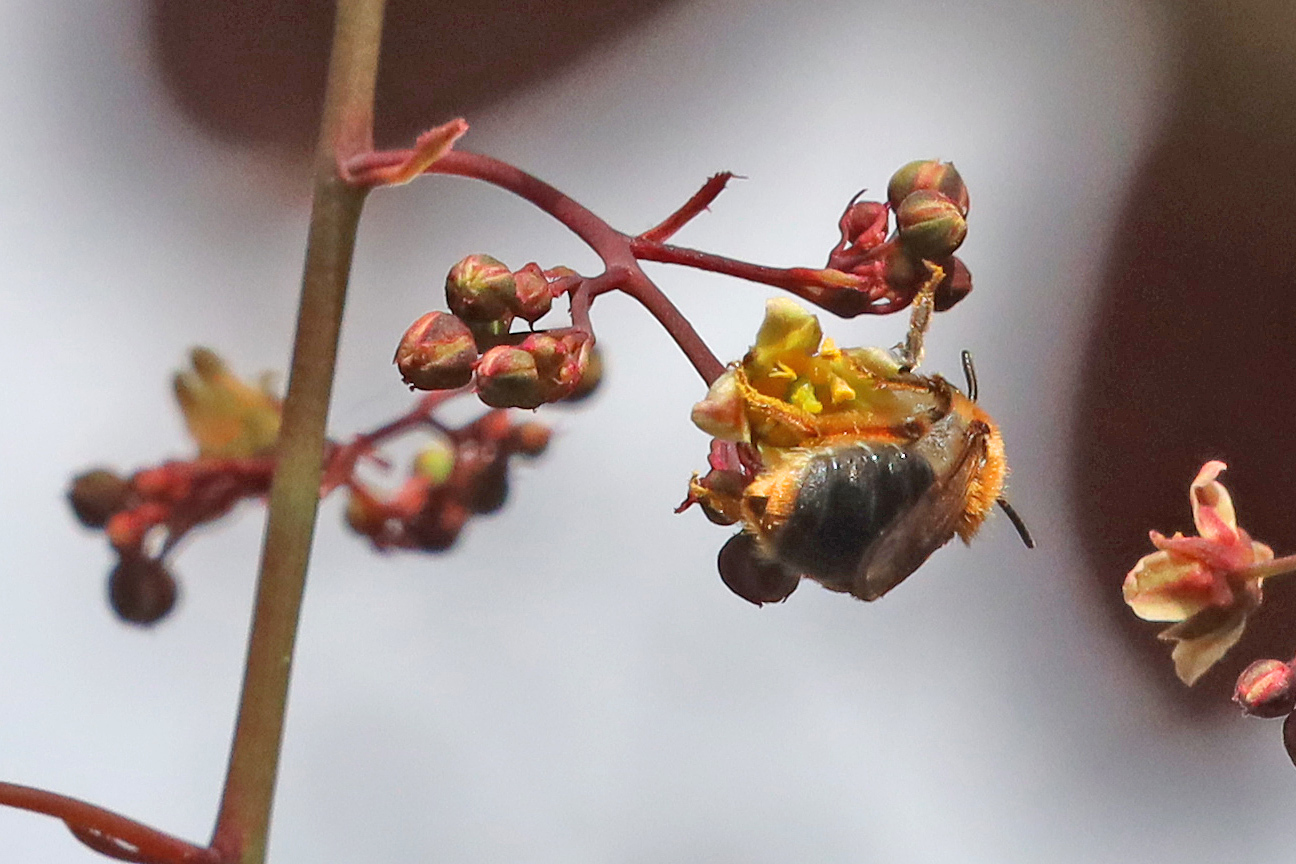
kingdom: Animalia
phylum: Arthropoda
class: Insecta
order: Hymenoptera
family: Andrenidae
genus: Andrena
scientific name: Andrena haemorrhoa
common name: Early mining bee
